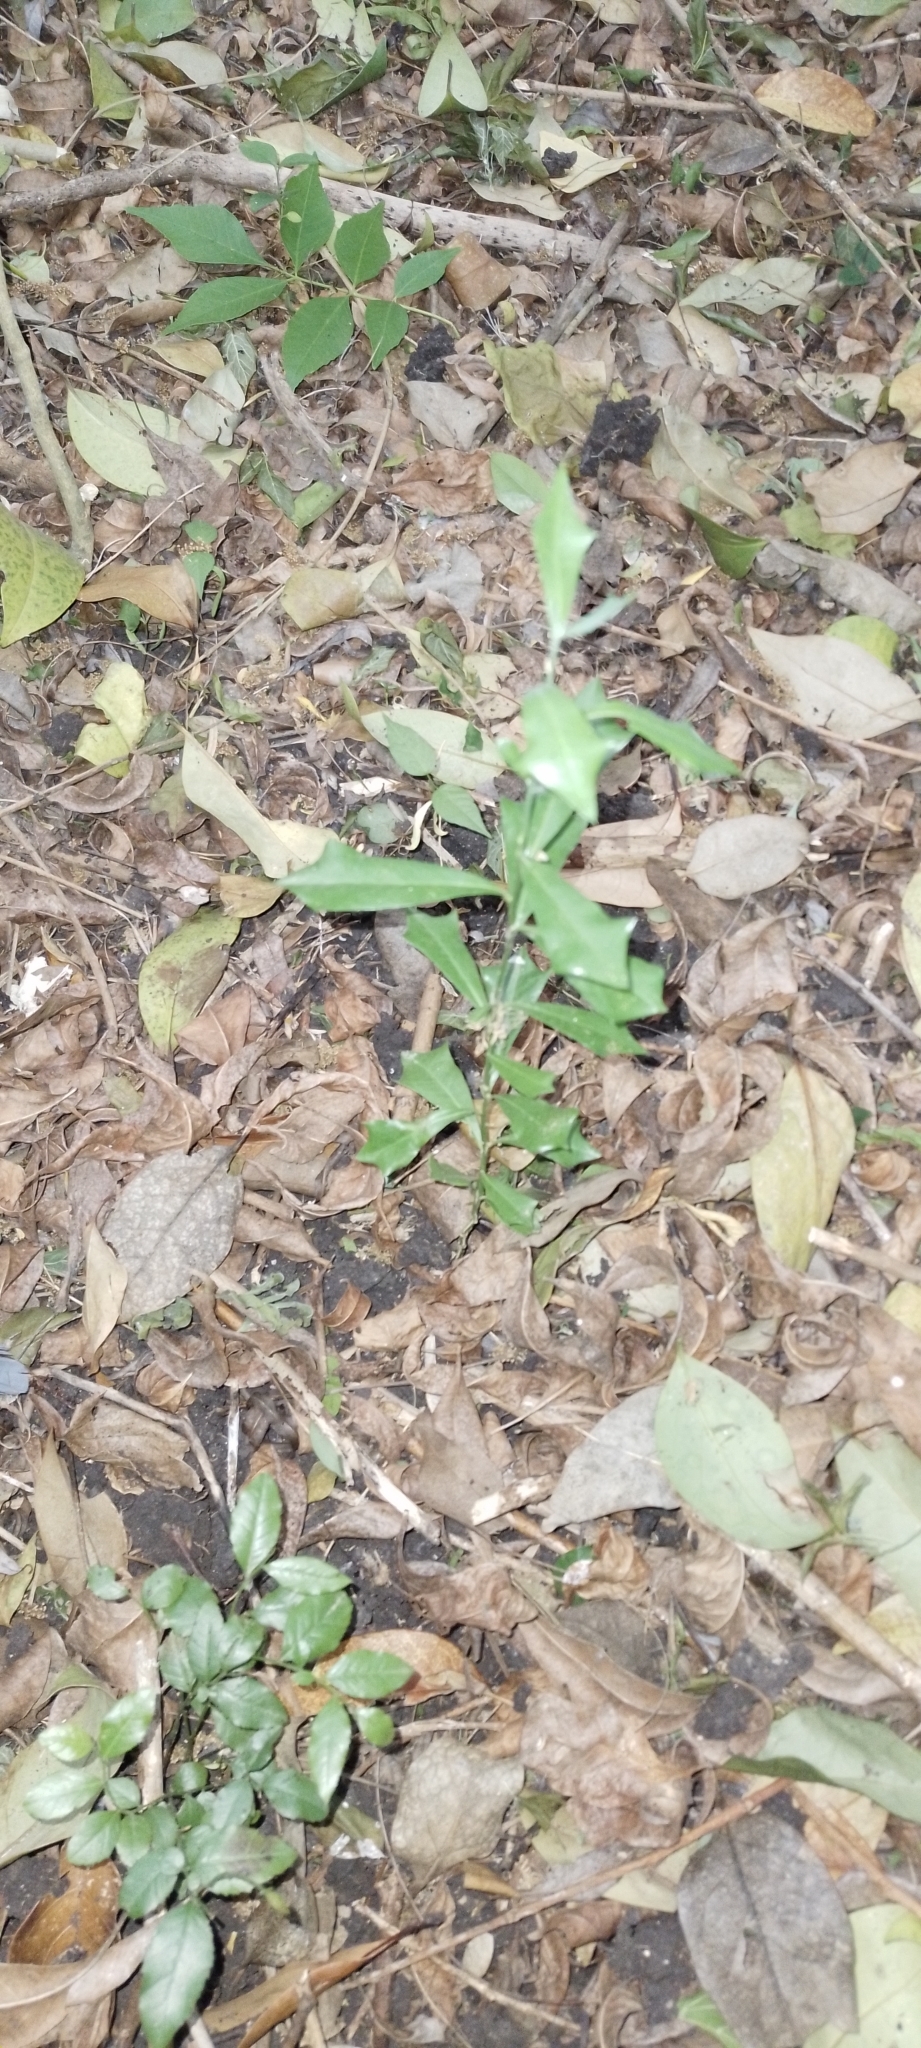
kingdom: Plantae
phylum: Tracheophyta
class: Magnoliopsida
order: Santalales
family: Cervantesiaceae
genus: Jodina
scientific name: Jodina rhombifolia
